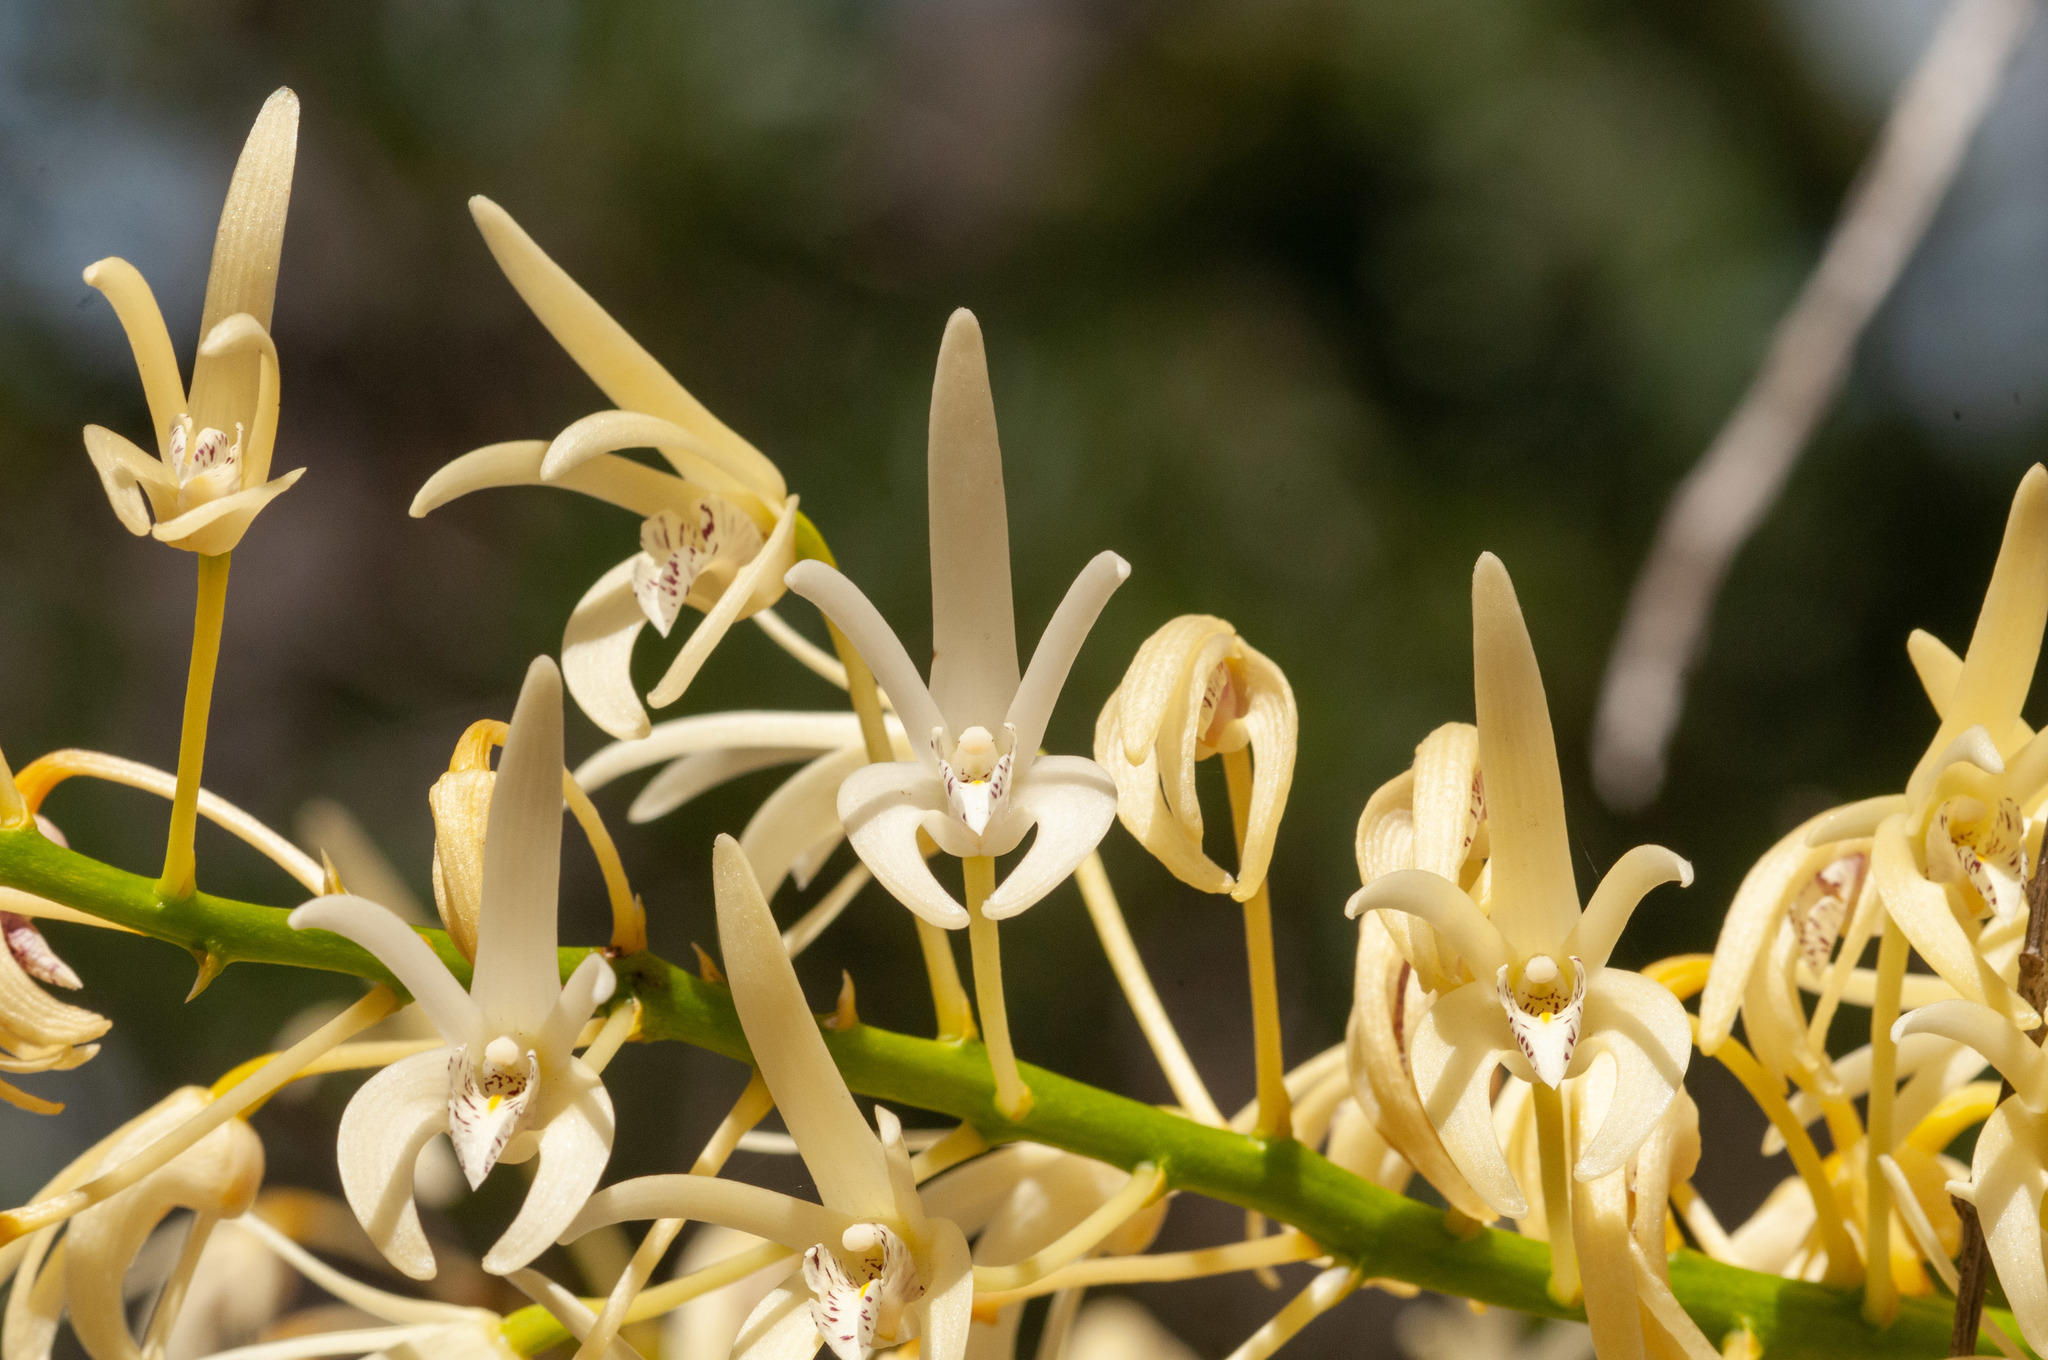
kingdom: Plantae
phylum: Tracheophyta
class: Liliopsida
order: Asparagales
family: Orchidaceae
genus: Dendrobium
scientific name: Dendrobium speciosum
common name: Rock-lily
